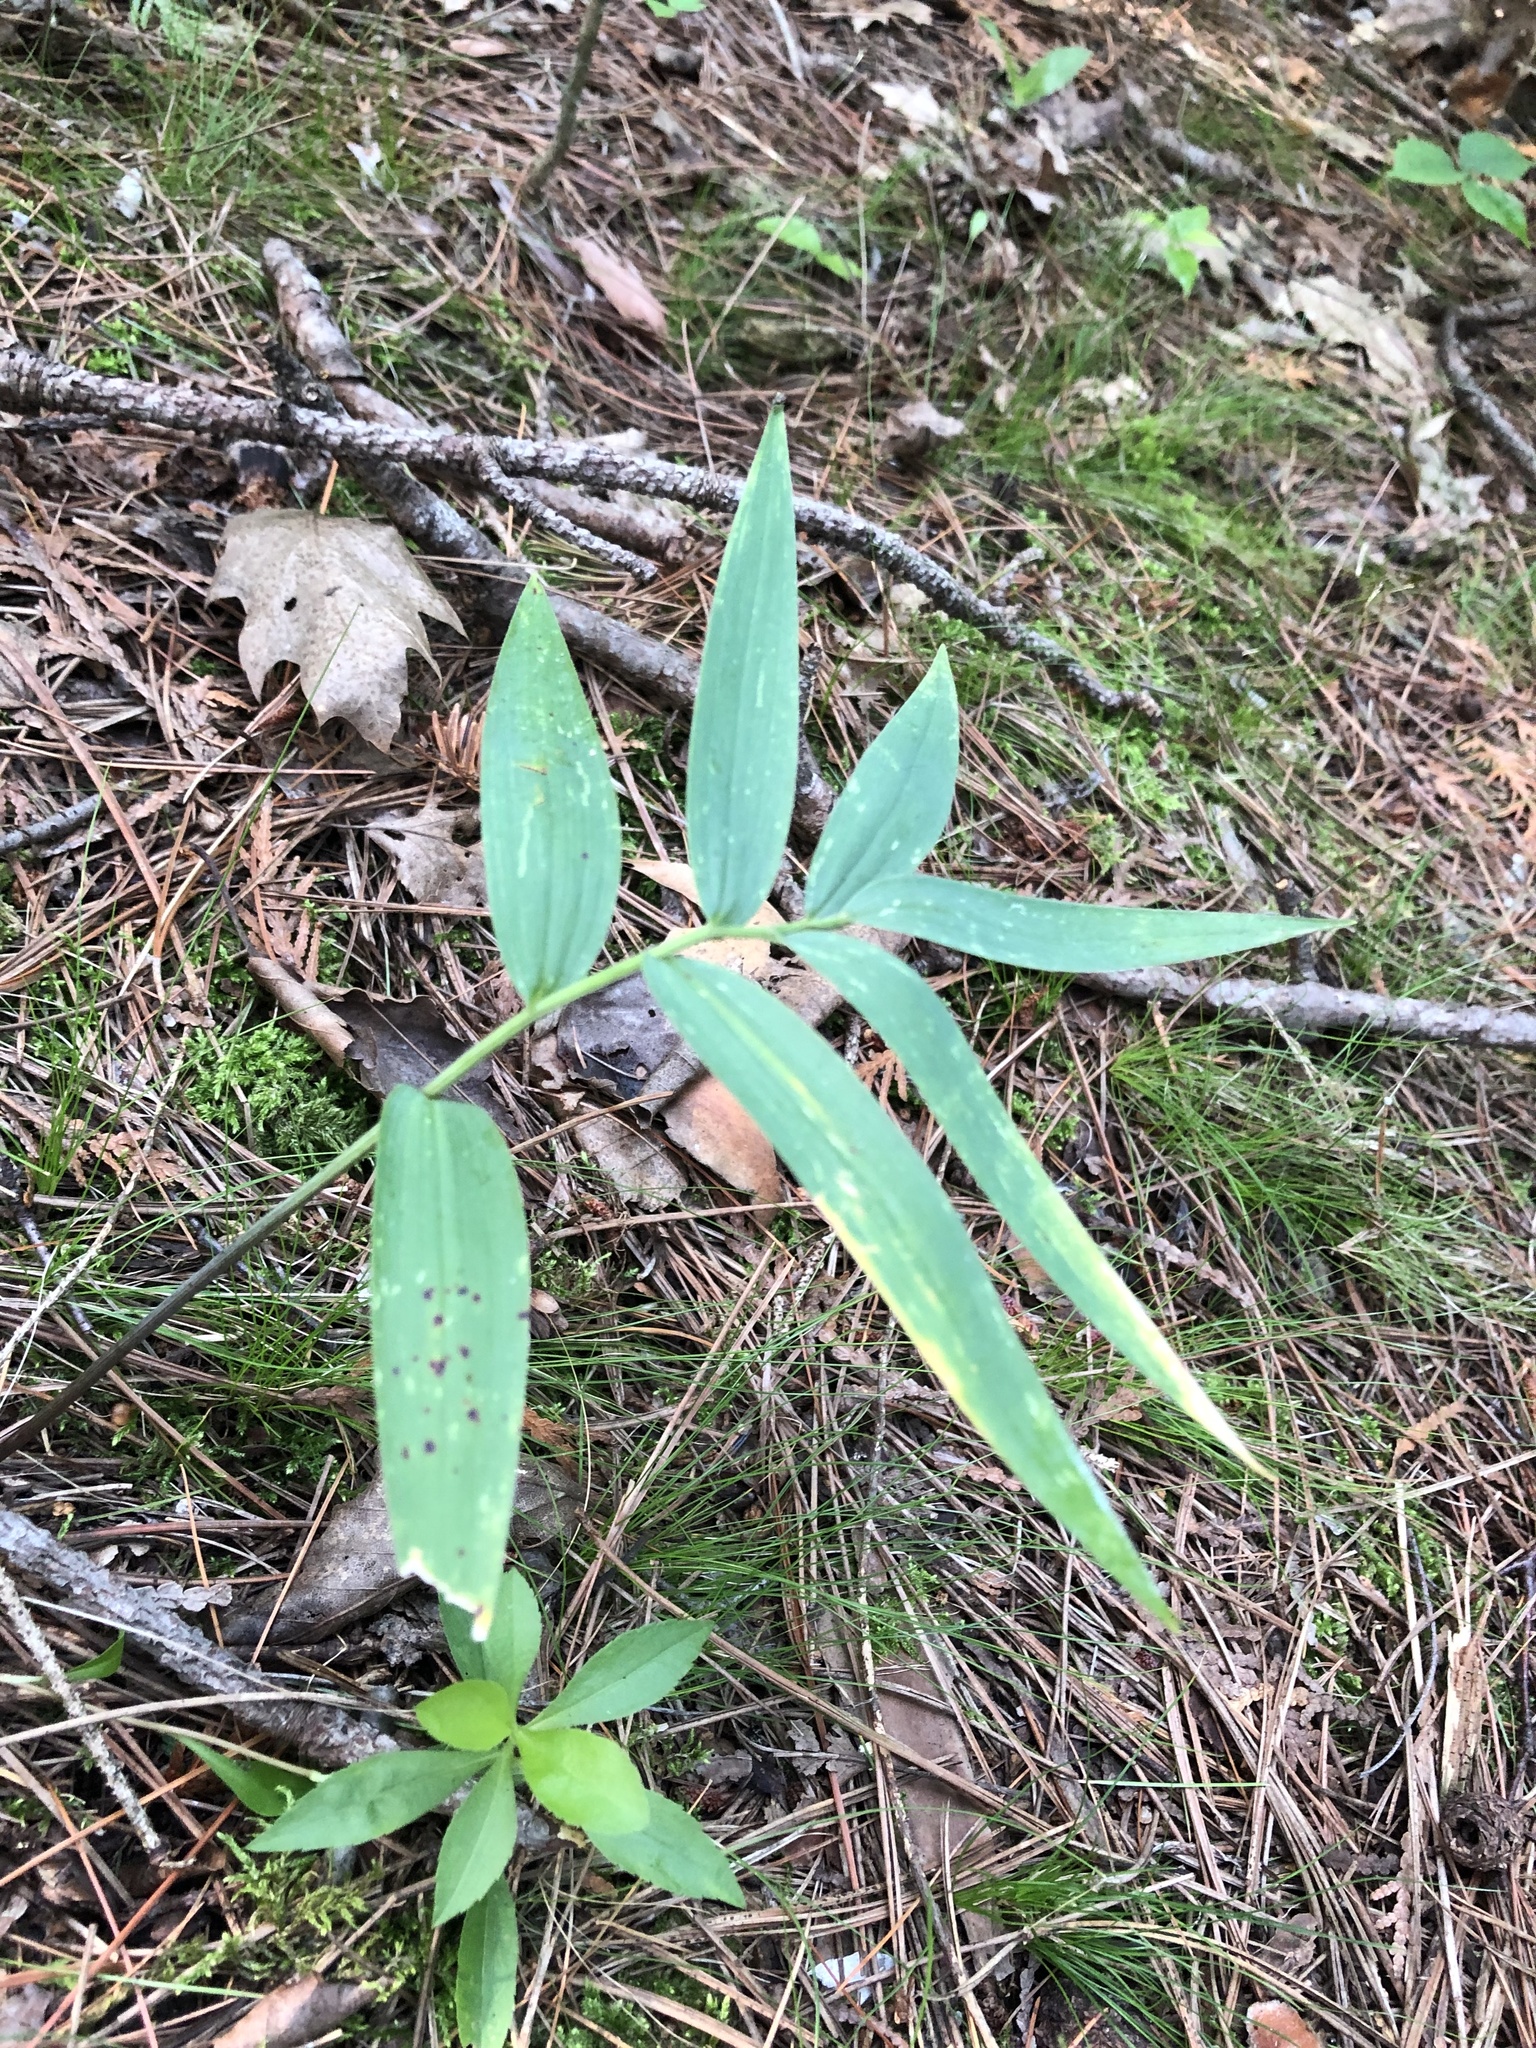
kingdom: Plantae
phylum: Tracheophyta
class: Liliopsida
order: Asparagales
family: Asparagaceae
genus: Maianthemum
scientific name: Maianthemum stellatum
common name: Little false solomon's seal
